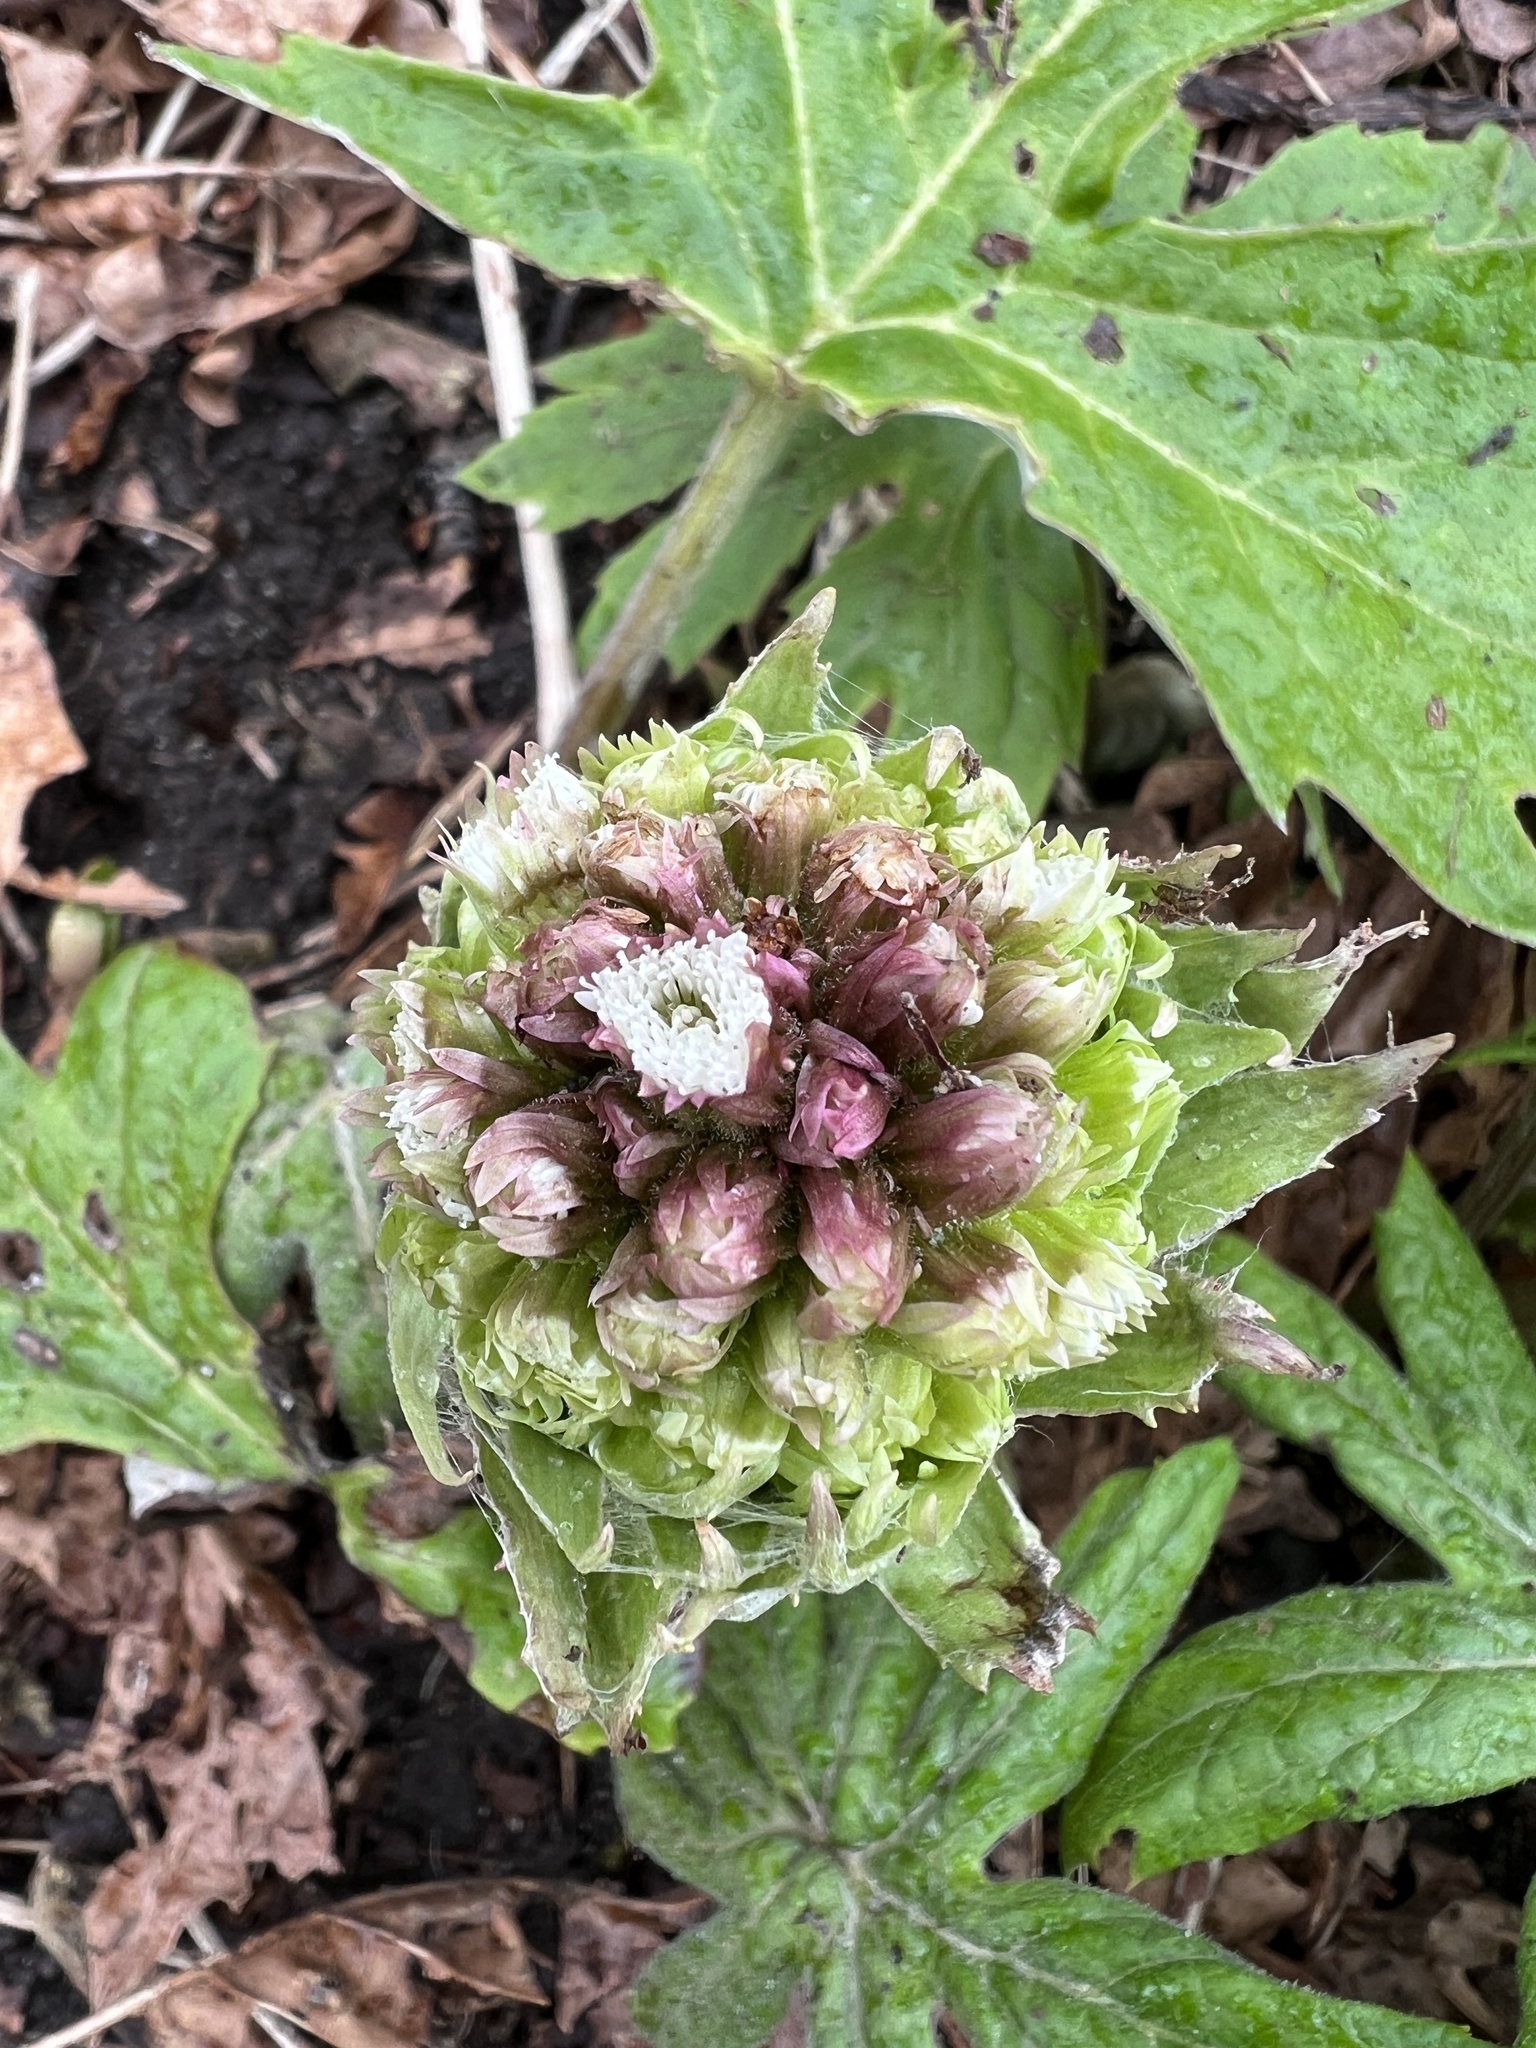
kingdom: Plantae
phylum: Tracheophyta
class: Magnoliopsida
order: Asterales
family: Asteraceae
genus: Petasites
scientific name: Petasites frigidus
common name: Arctic butterbur
